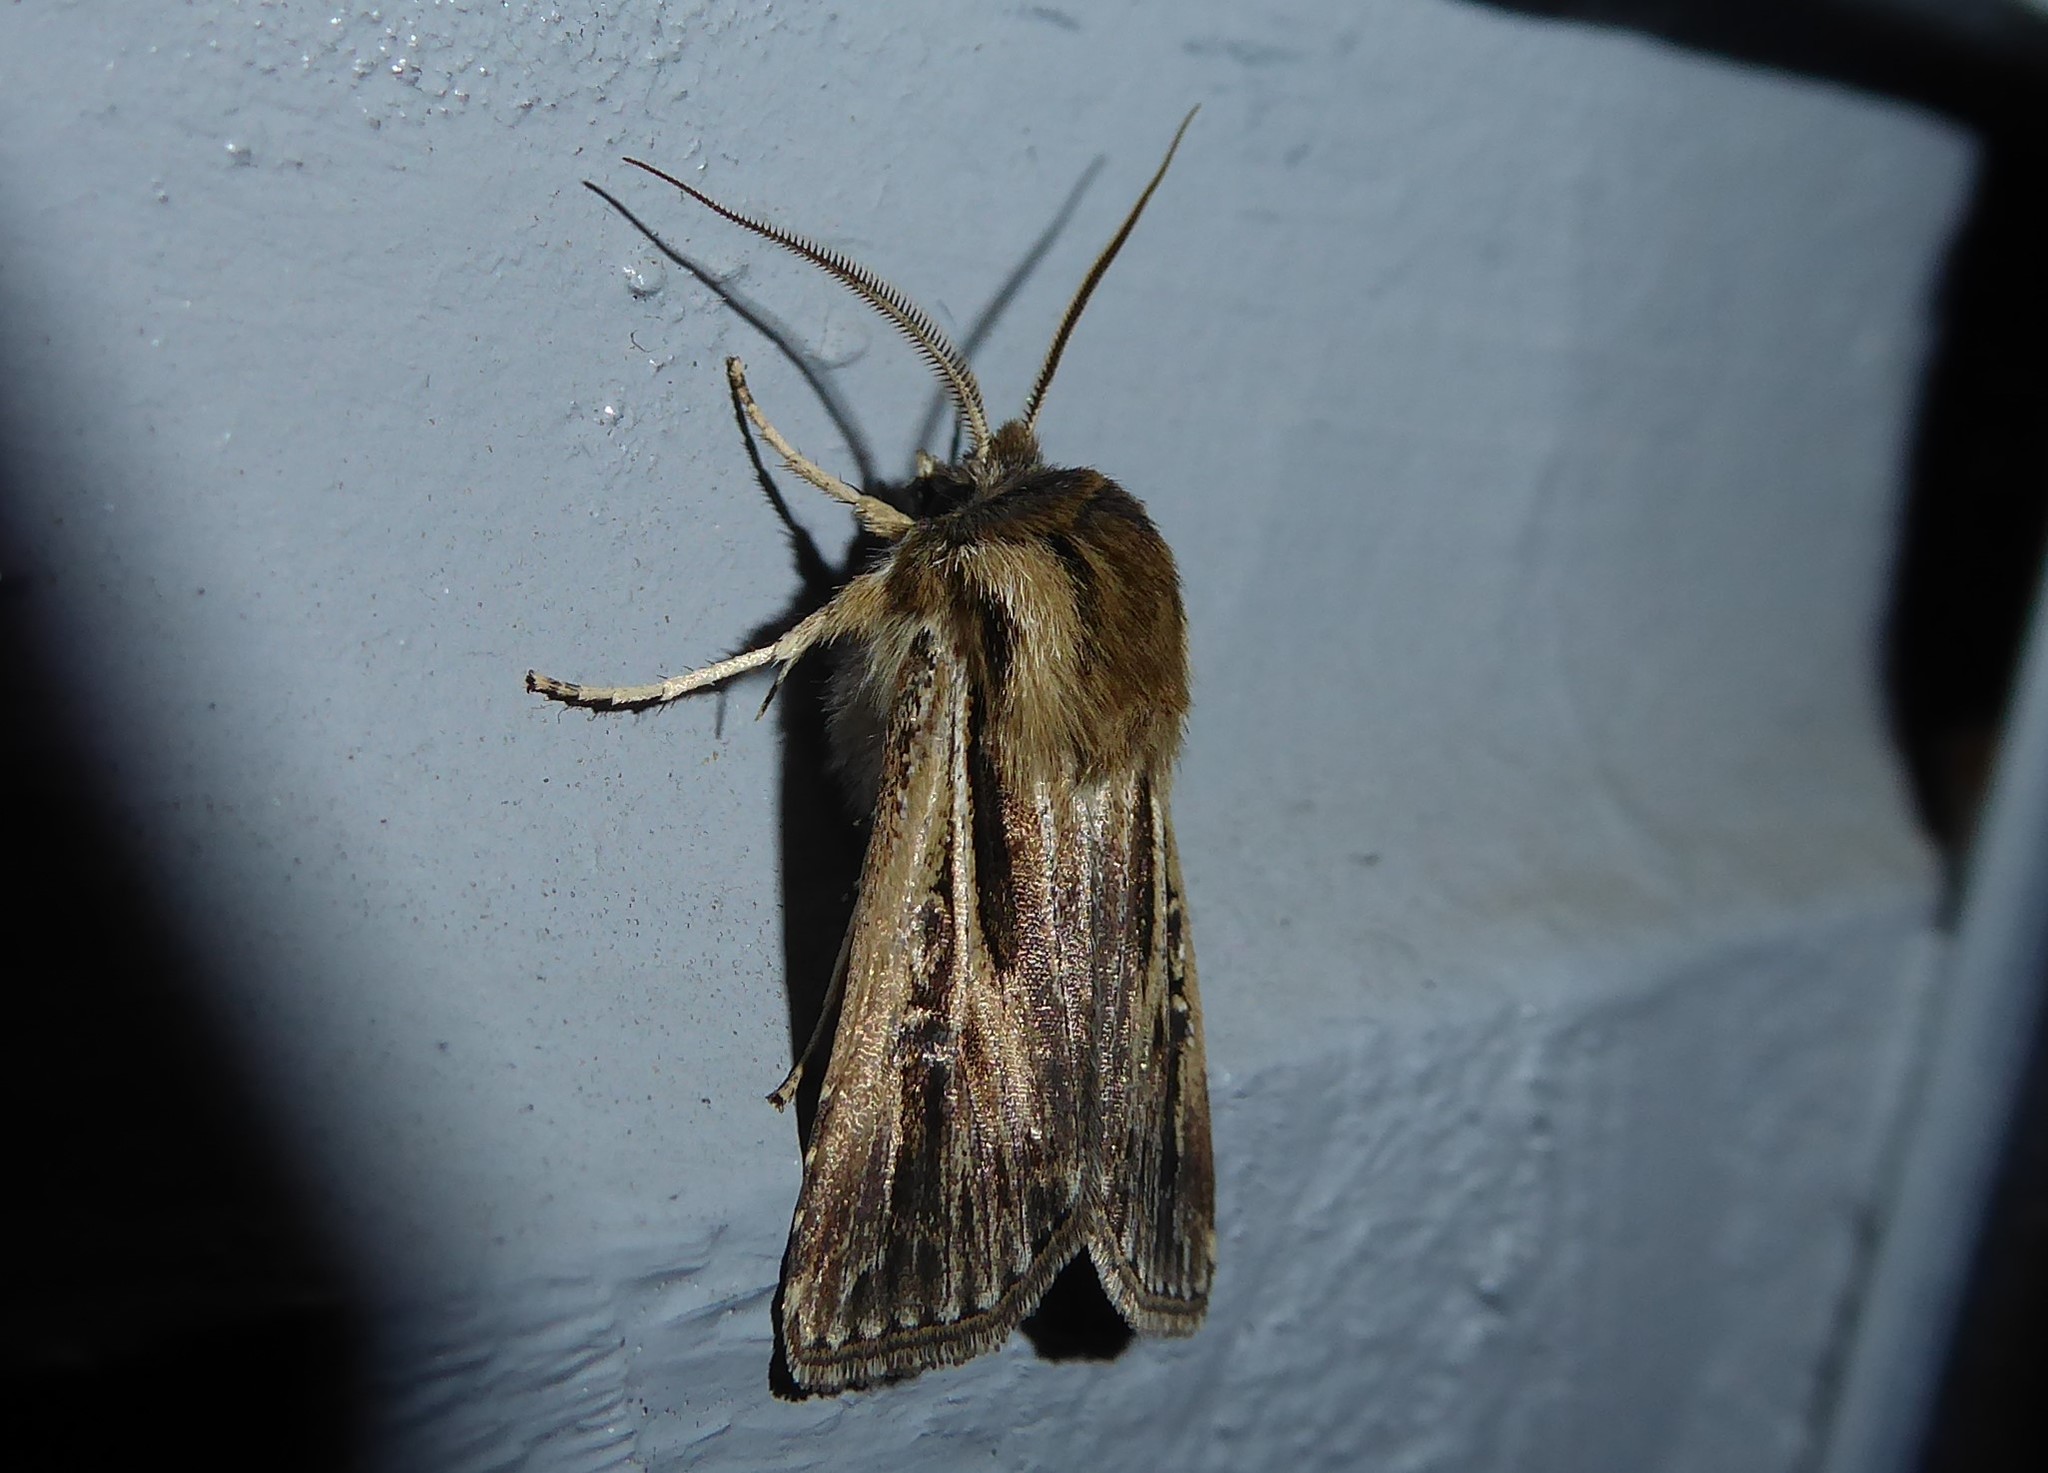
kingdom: Animalia
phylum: Arthropoda
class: Insecta
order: Lepidoptera
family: Noctuidae
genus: Agrotis
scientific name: Agrotis innominata
